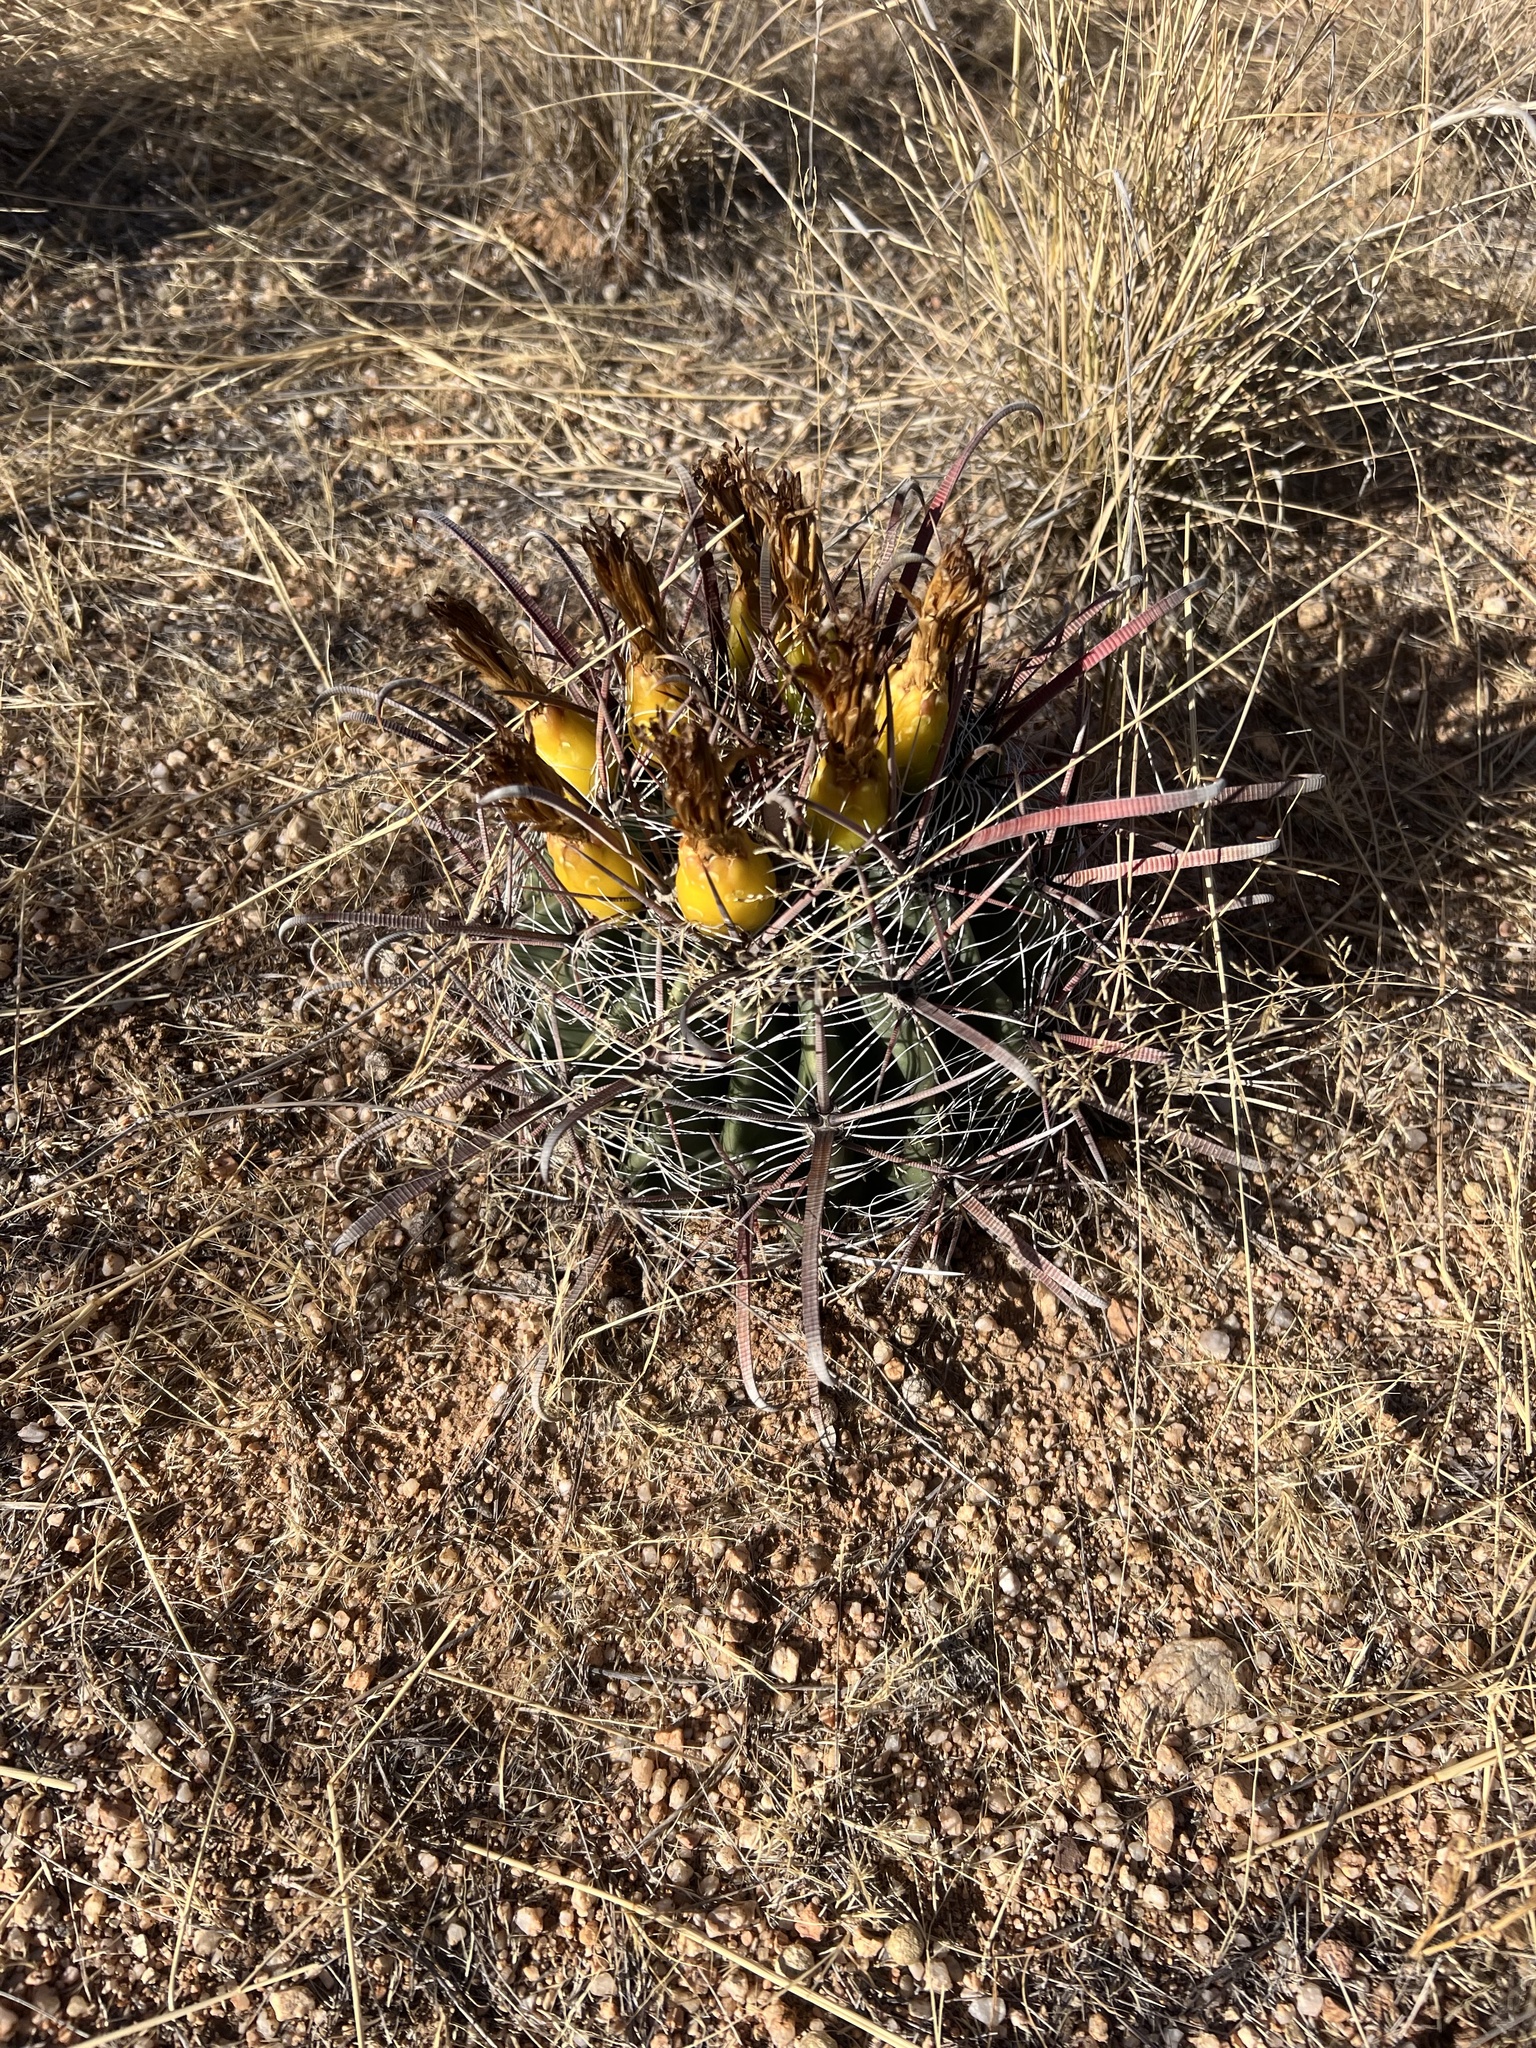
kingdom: Plantae
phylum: Tracheophyta
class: Magnoliopsida
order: Caryophyllales
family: Cactaceae
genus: Ferocactus
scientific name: Ferocactus wislizeni
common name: Candy barrel cactus
